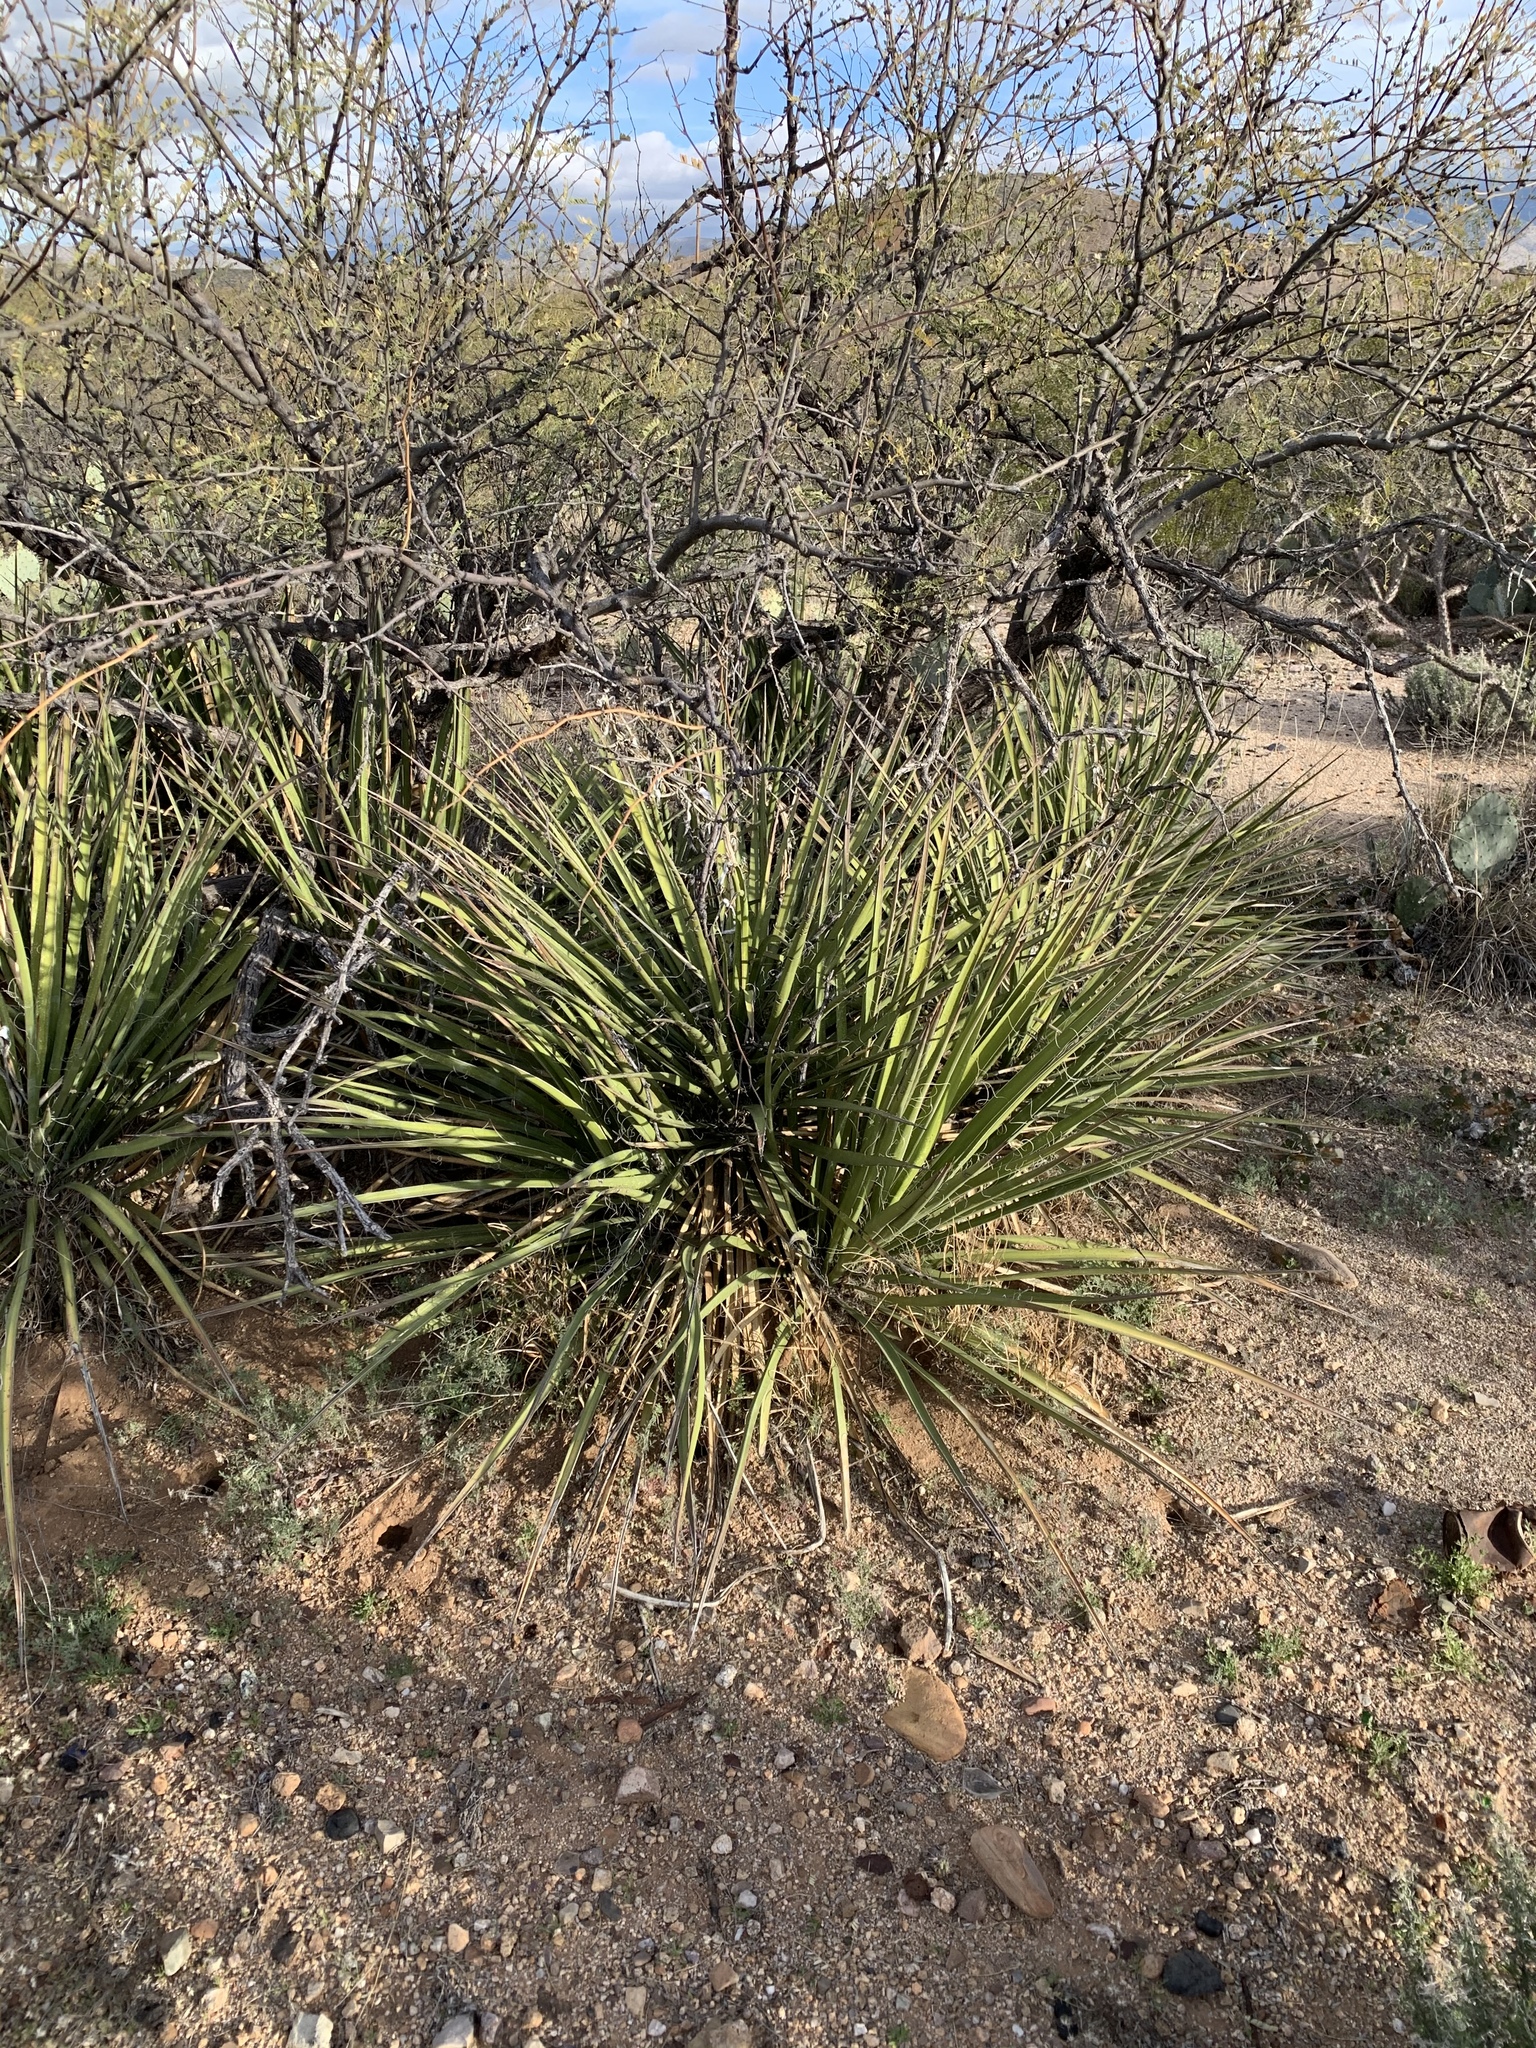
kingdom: Plantae
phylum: Tracheophyta
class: Liliopsida
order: Asparagales
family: Asparagaceae
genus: Yucca
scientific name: Yucca baccata
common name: Banana yucca
